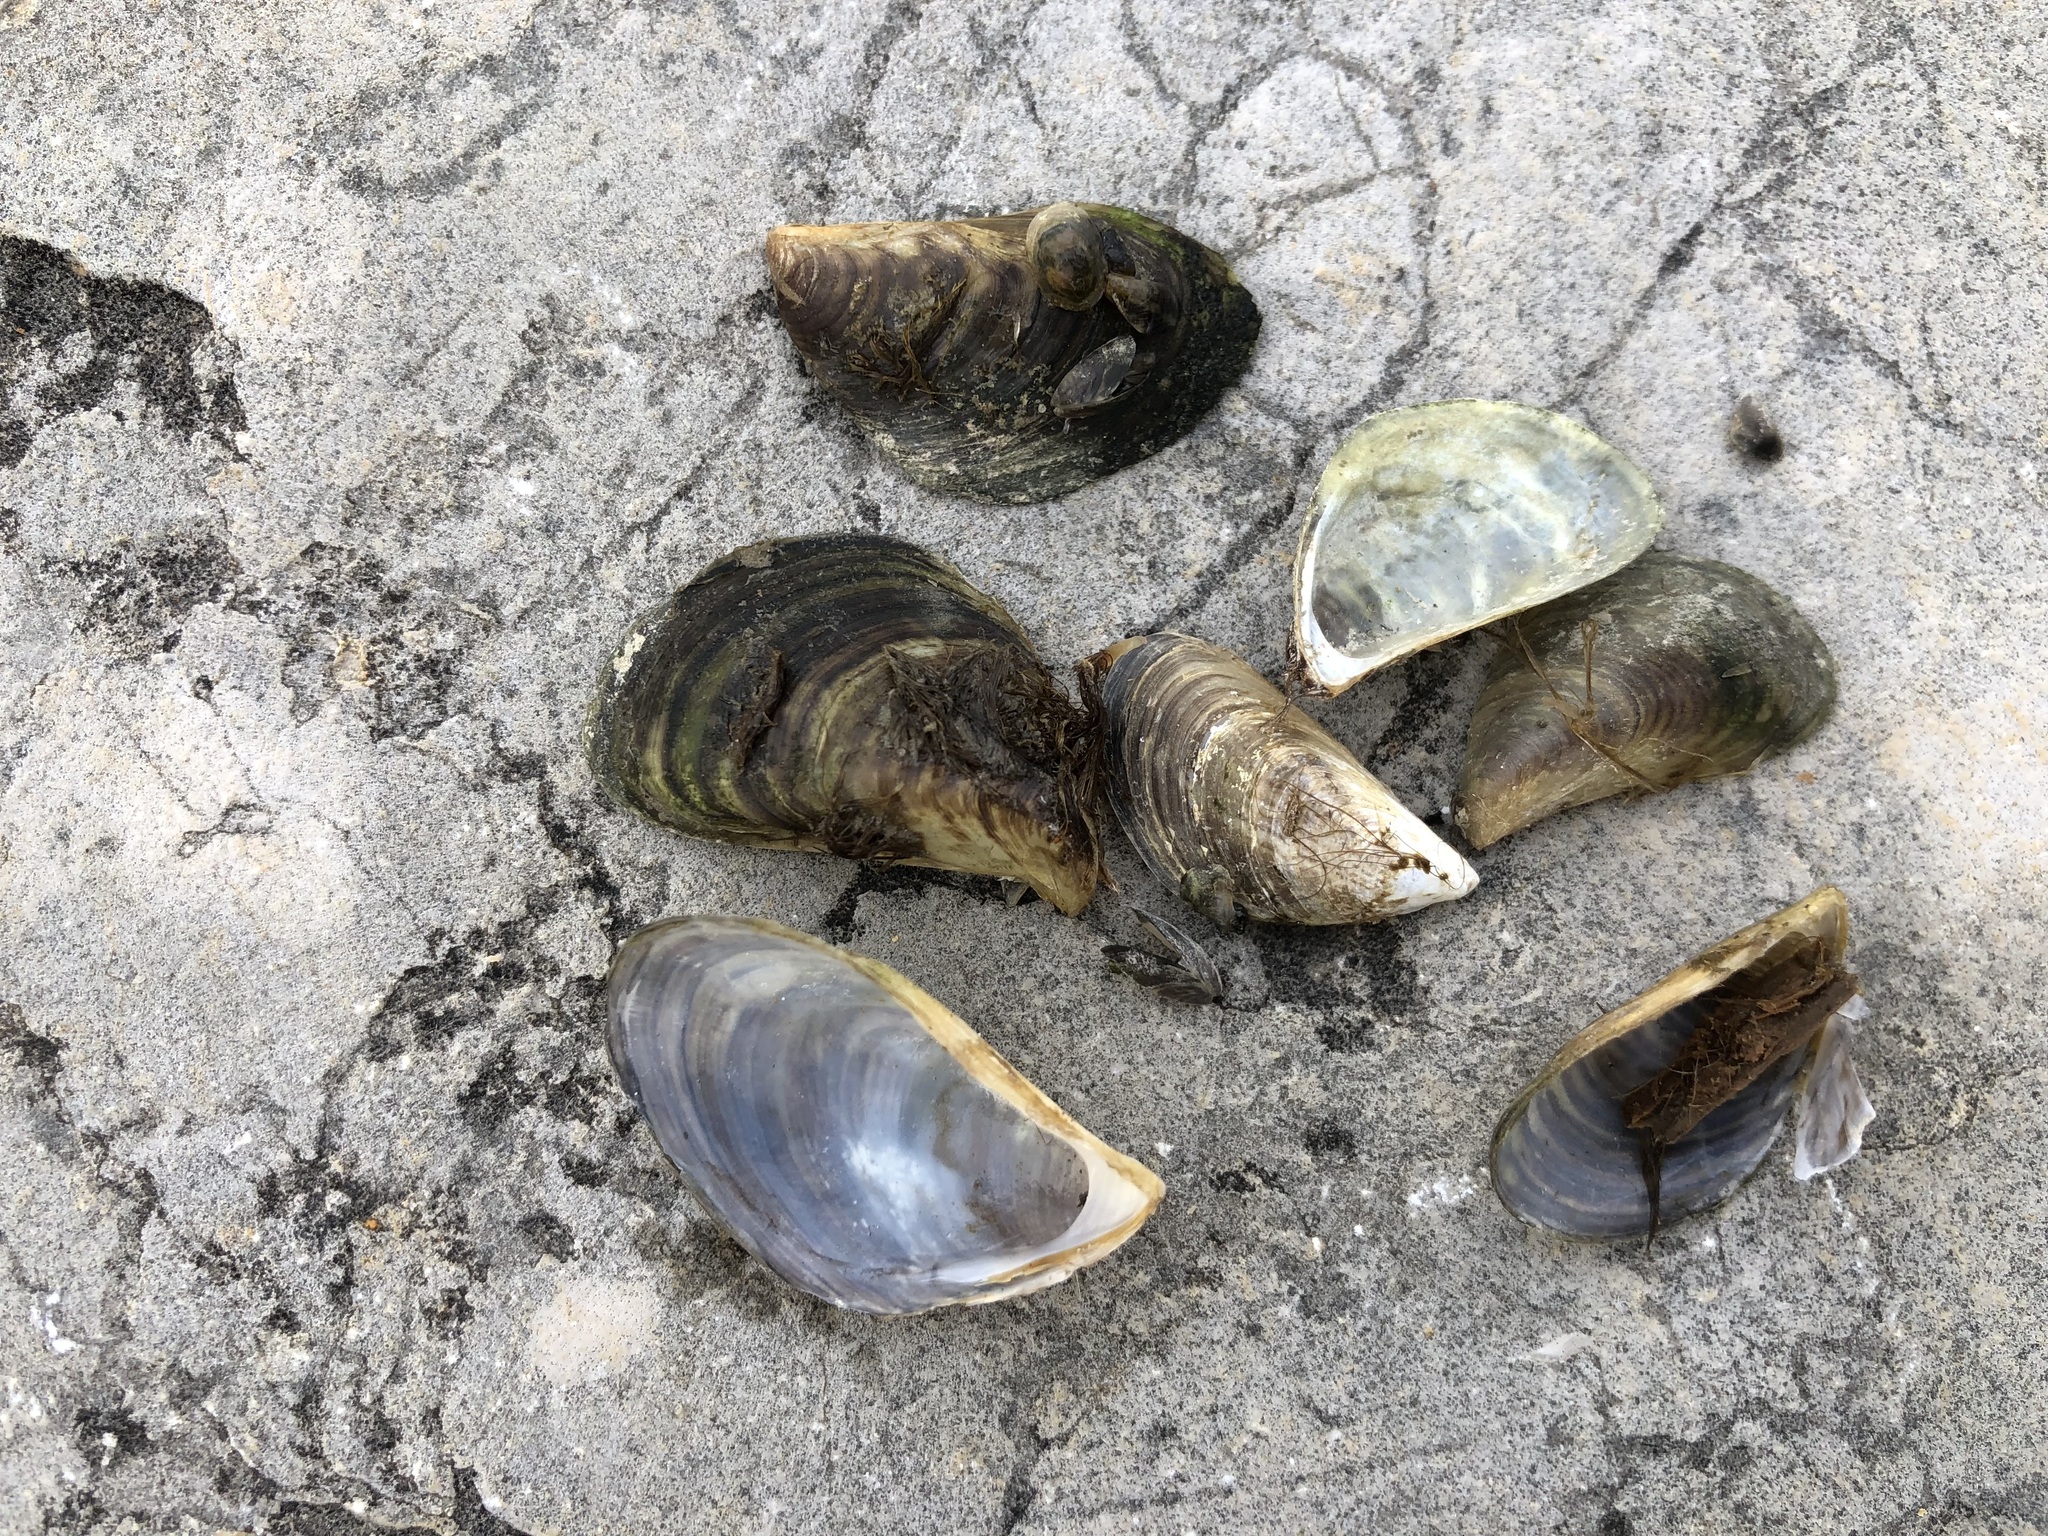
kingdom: Animalia
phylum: Mollusca
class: Bivalvia
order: Myida
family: Dreissenidae
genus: Dreissena
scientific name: Dreissena bugensis
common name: Quagga mussel
